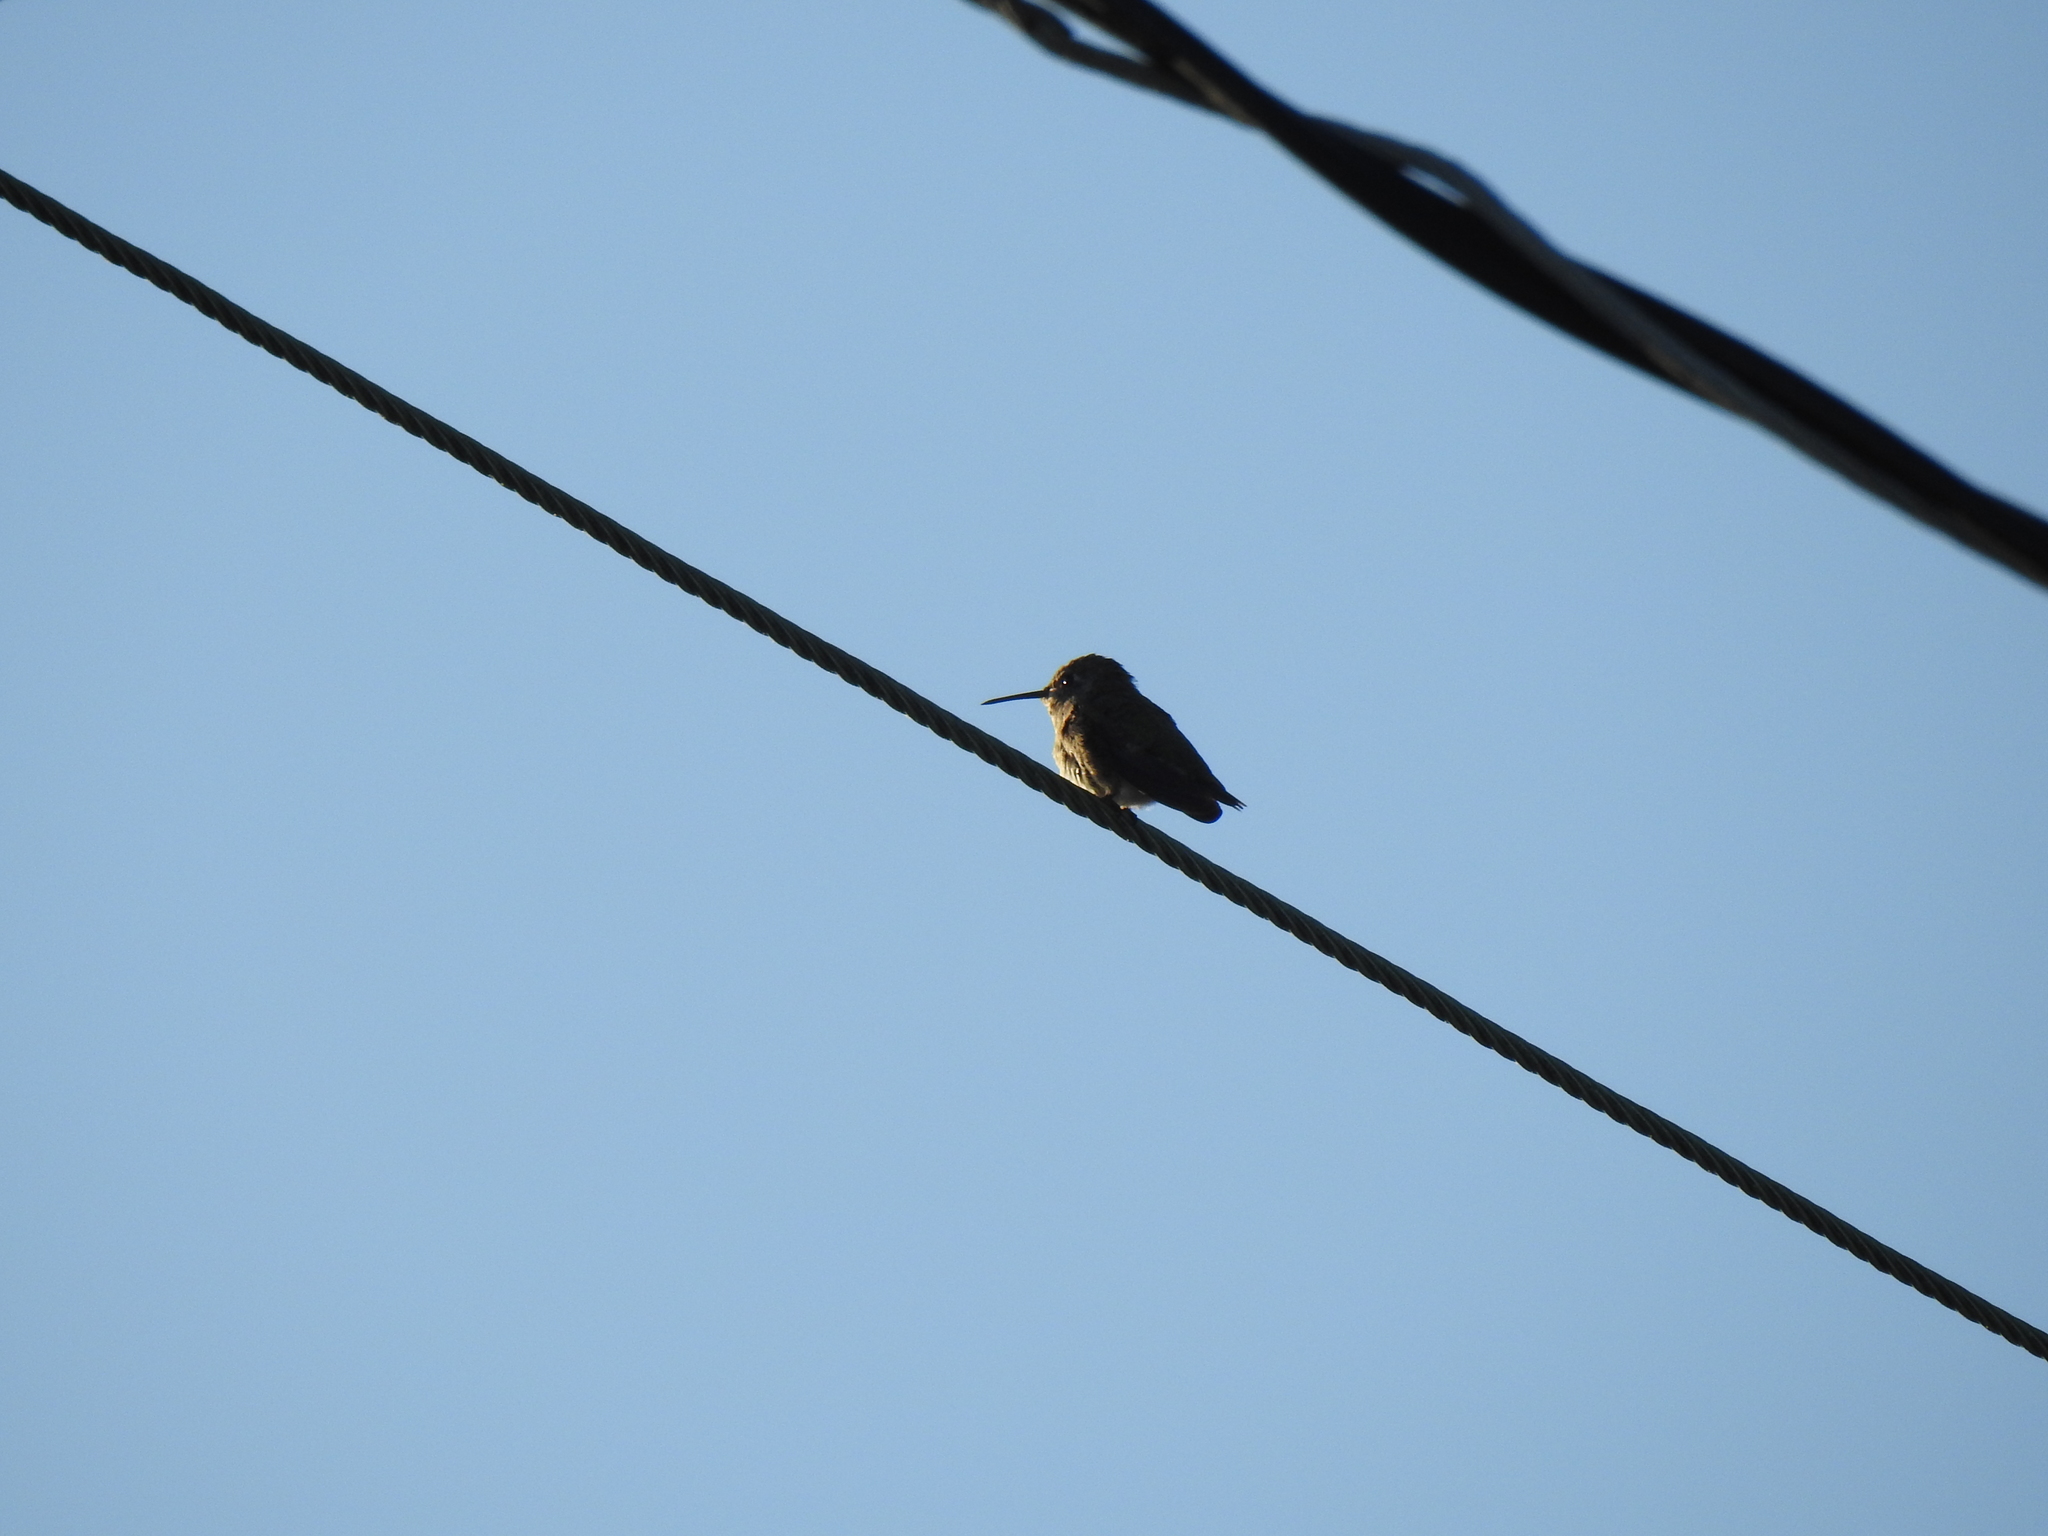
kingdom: Animalia
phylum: Chordata
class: Aves
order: Apodiformes
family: Trochilidae
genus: Calypte
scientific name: Calypte anna
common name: Anna's hummingbird
